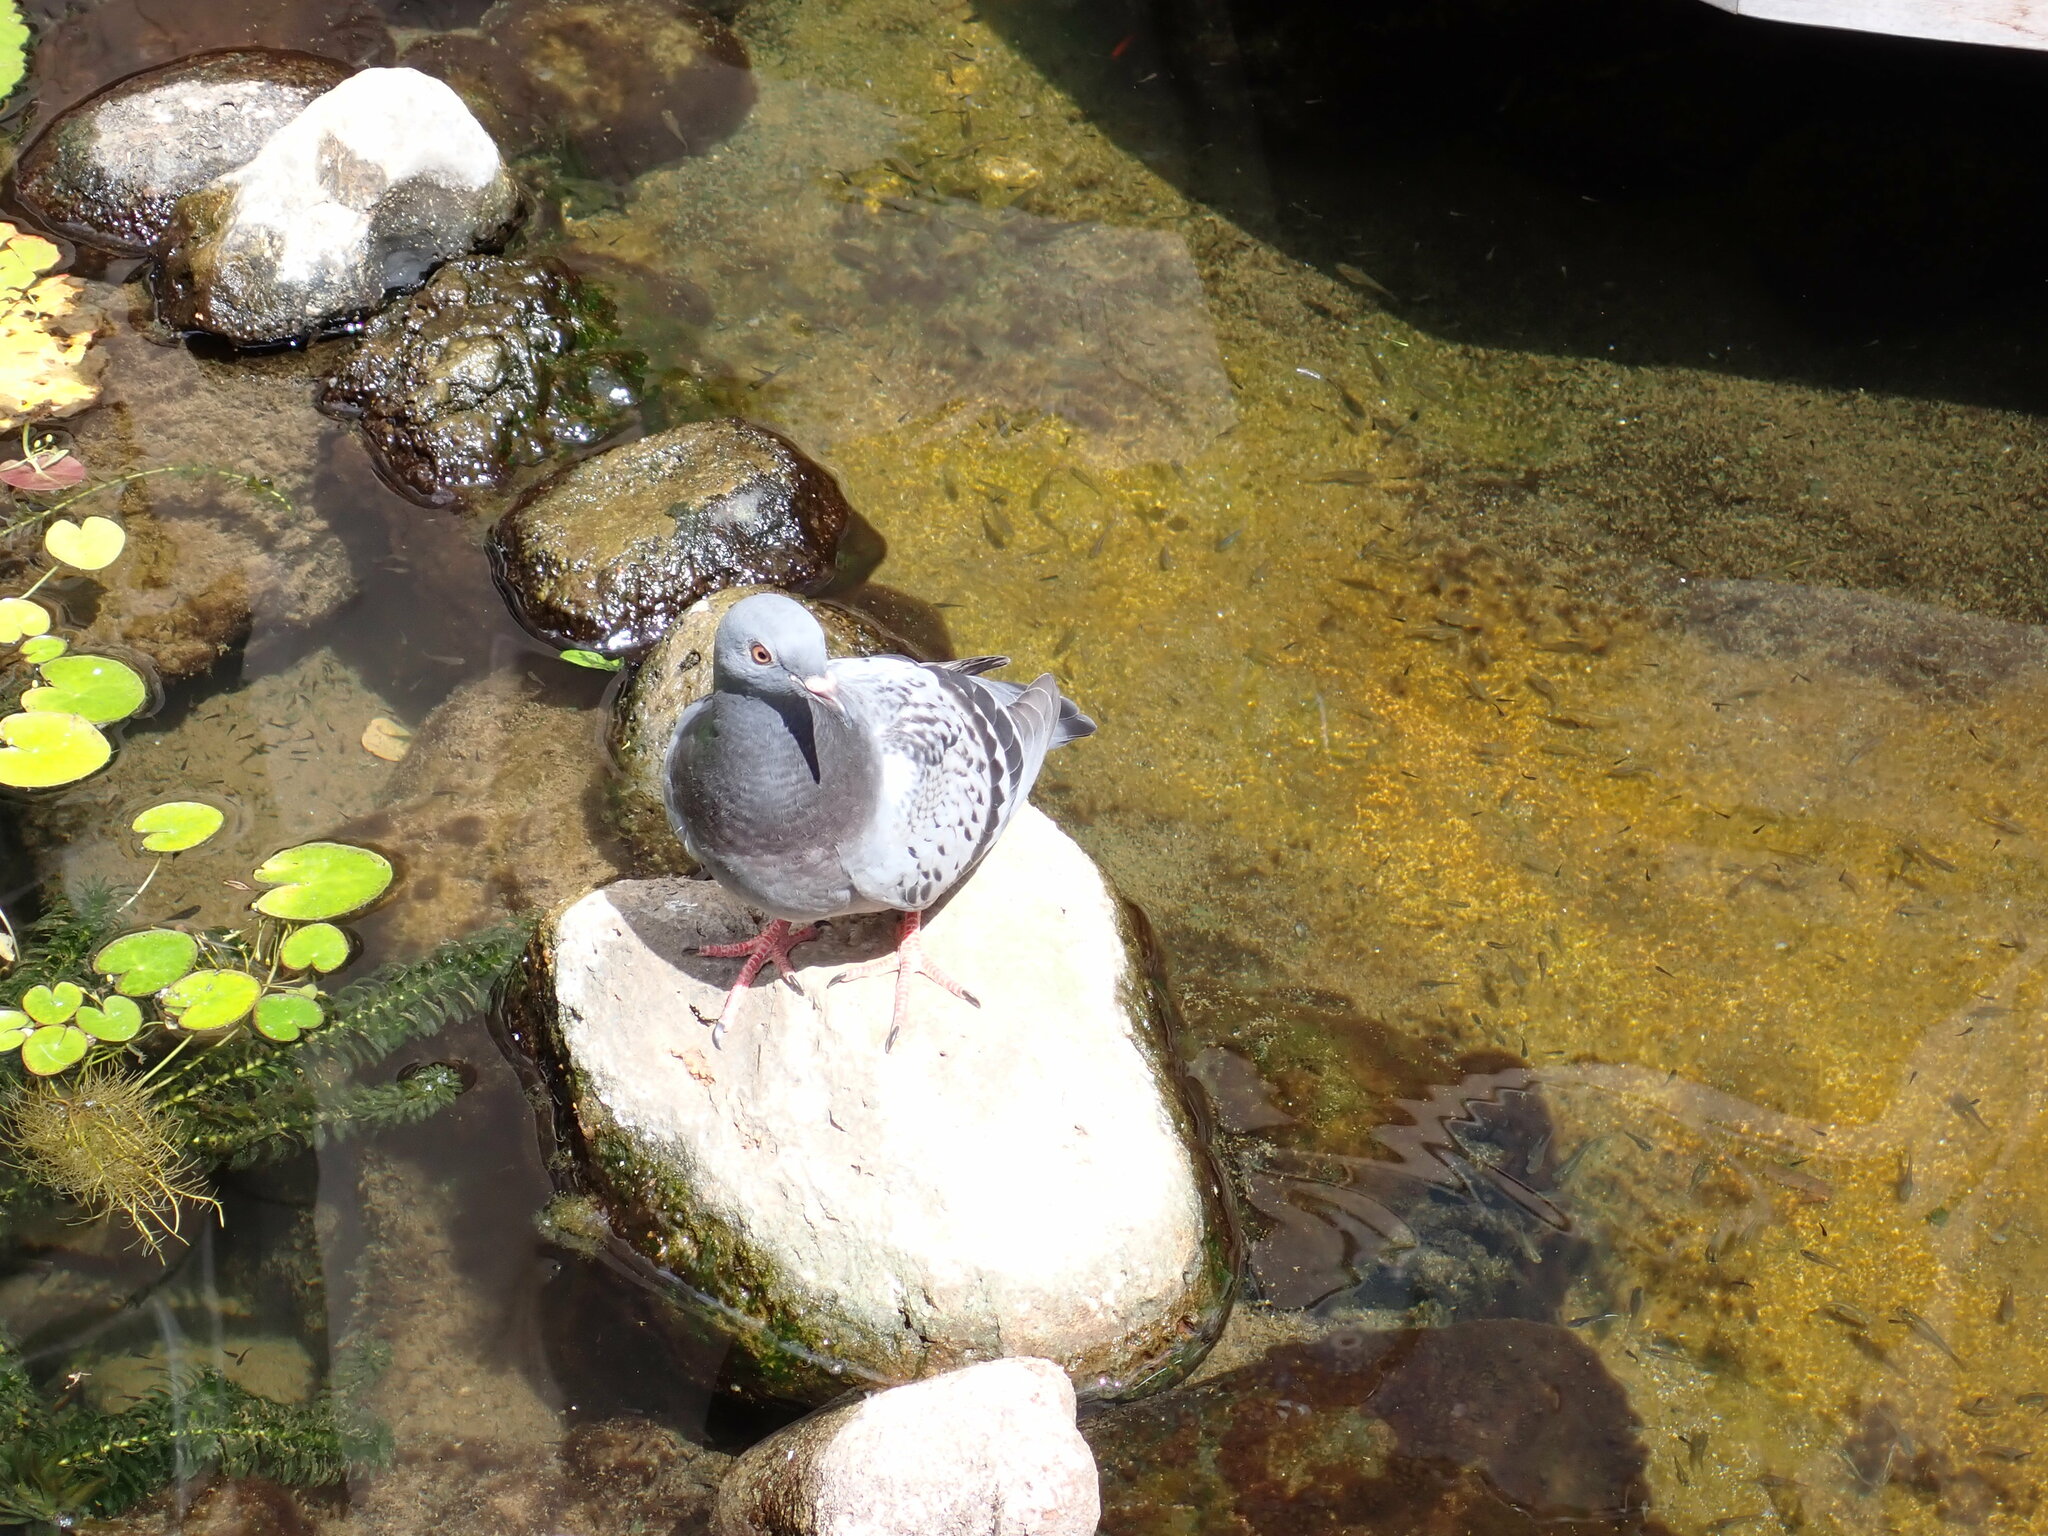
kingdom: Animalia
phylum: Chordata
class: Aves
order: Columbiformes
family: Columbidae
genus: Columba
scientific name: Columba livia
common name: Rock pigeon
